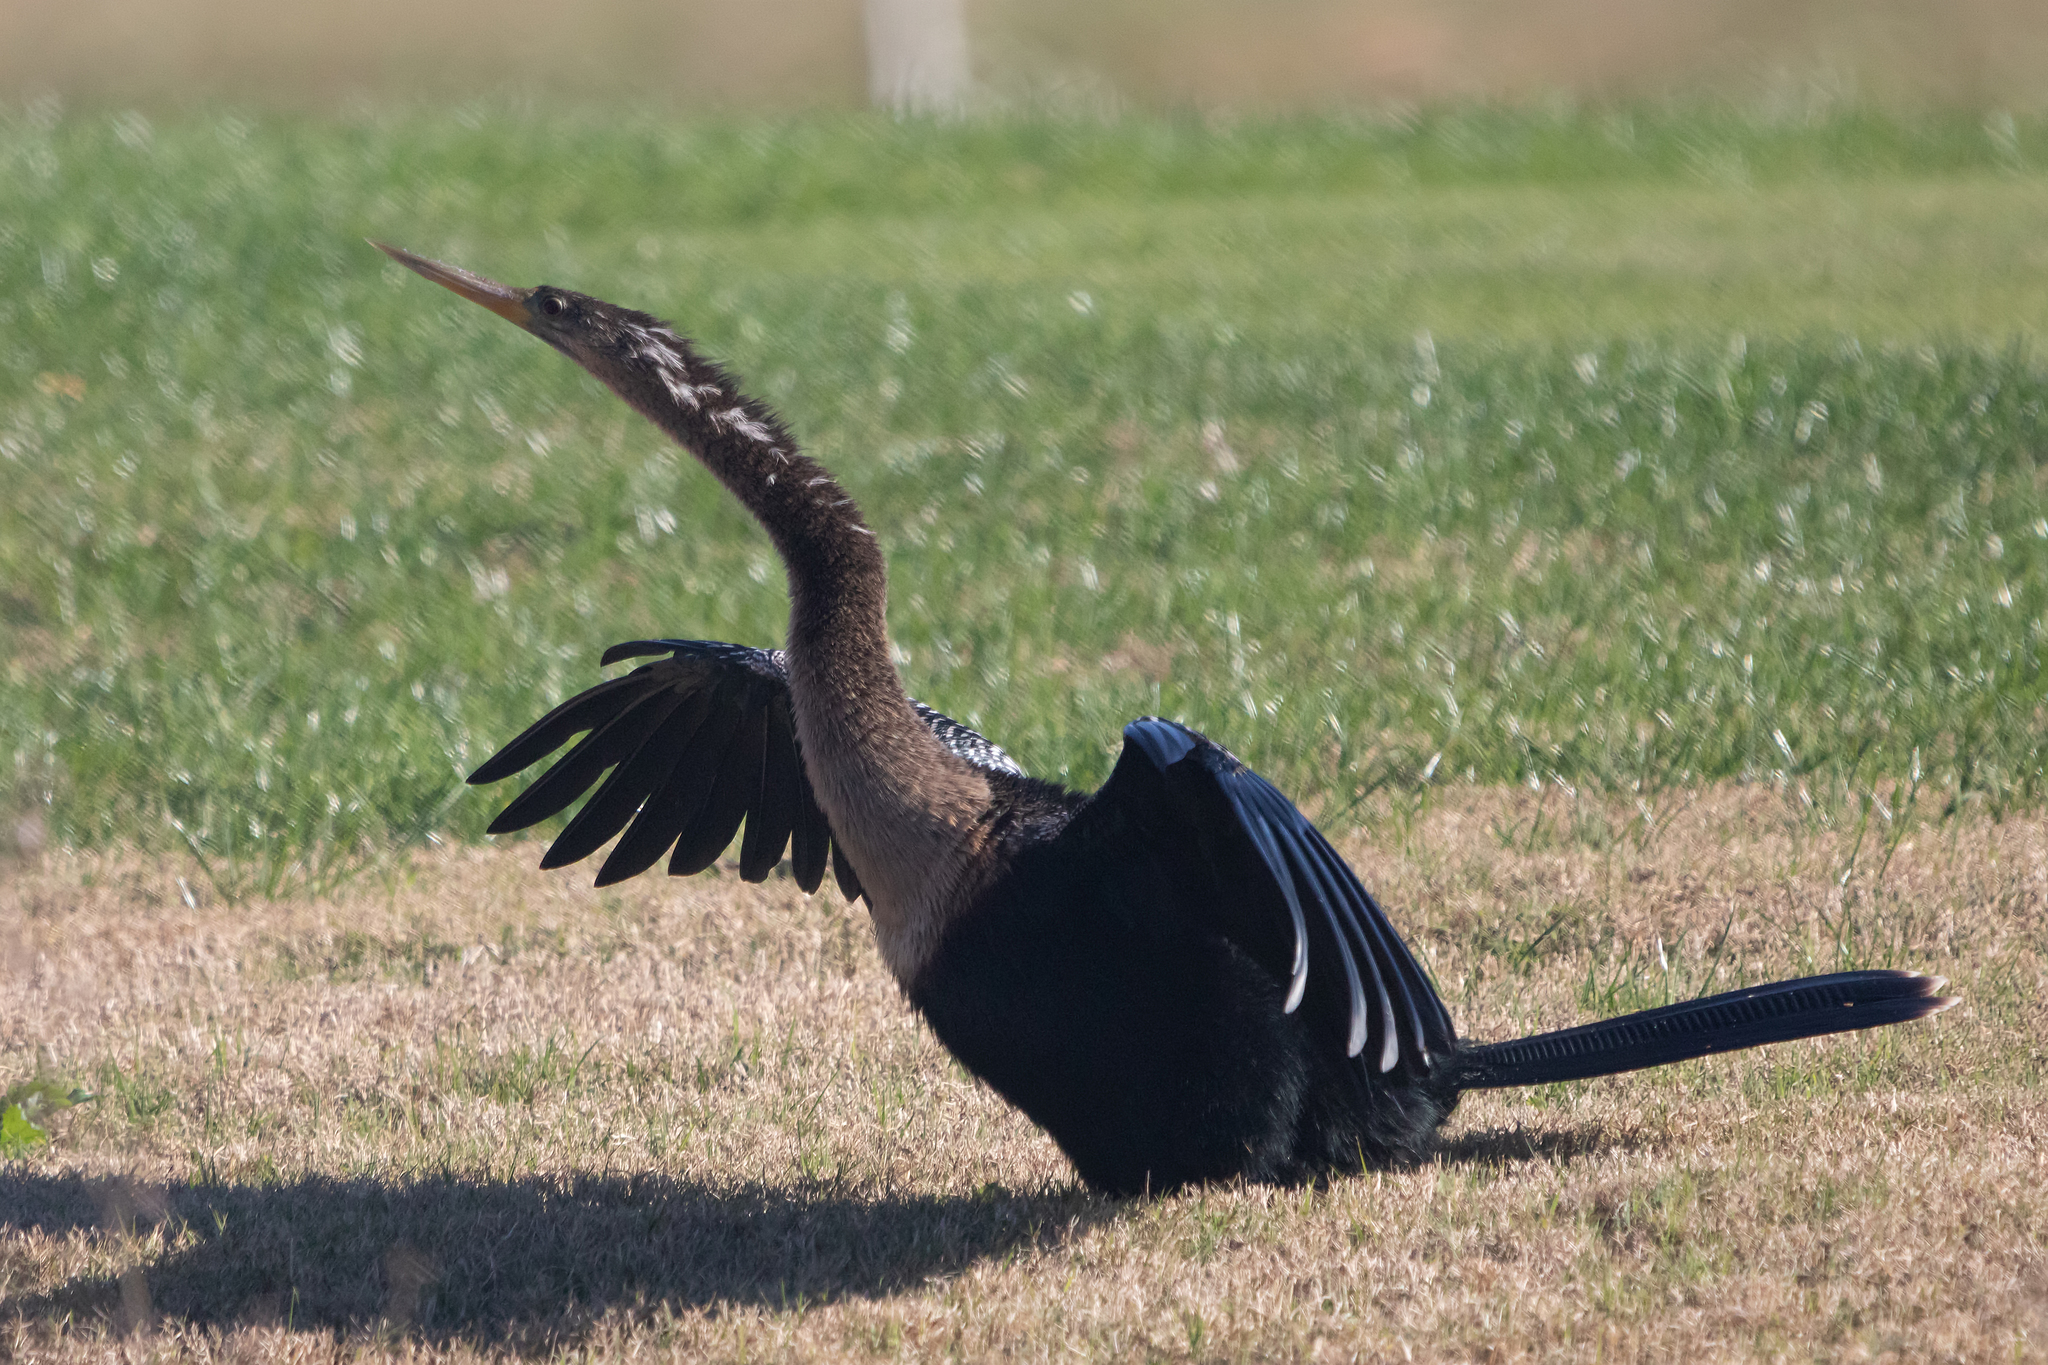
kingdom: Animalia
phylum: Chordata
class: Aves
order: Suliformes
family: Anhingidae
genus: Anhinga
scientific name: Anhinga anhinga
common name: Anhinga
